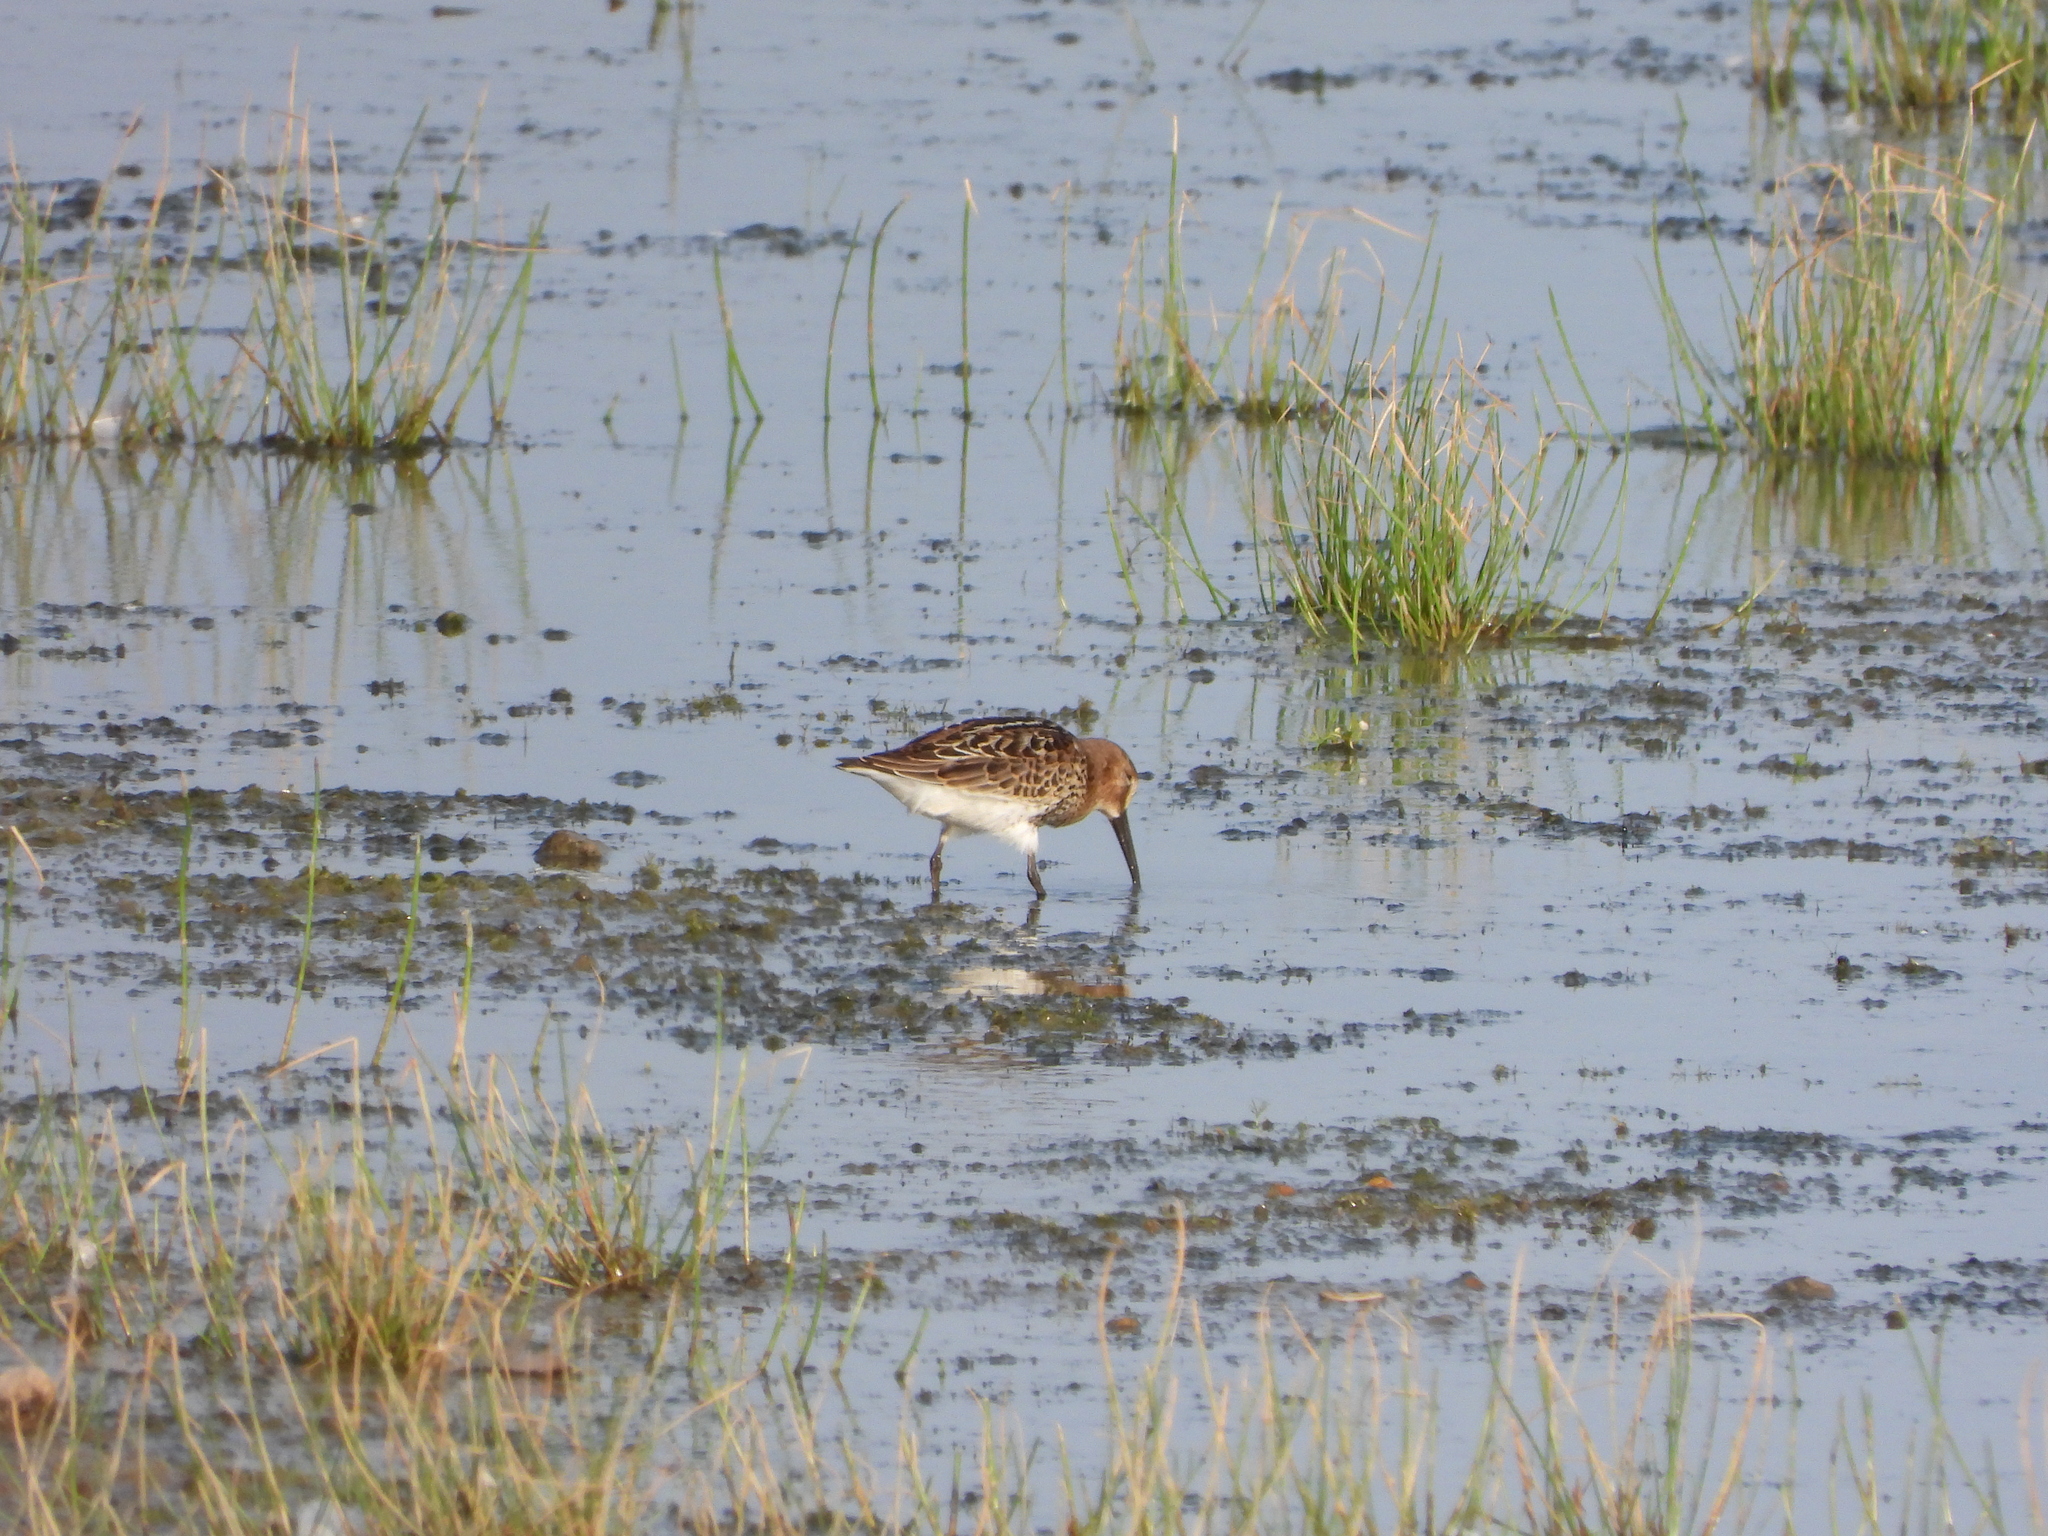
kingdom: Animalia
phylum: Chordata
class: Aves
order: Charadriiformes
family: Scolopacidae
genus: Calidris
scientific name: Calidris alpina
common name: Dunlin
